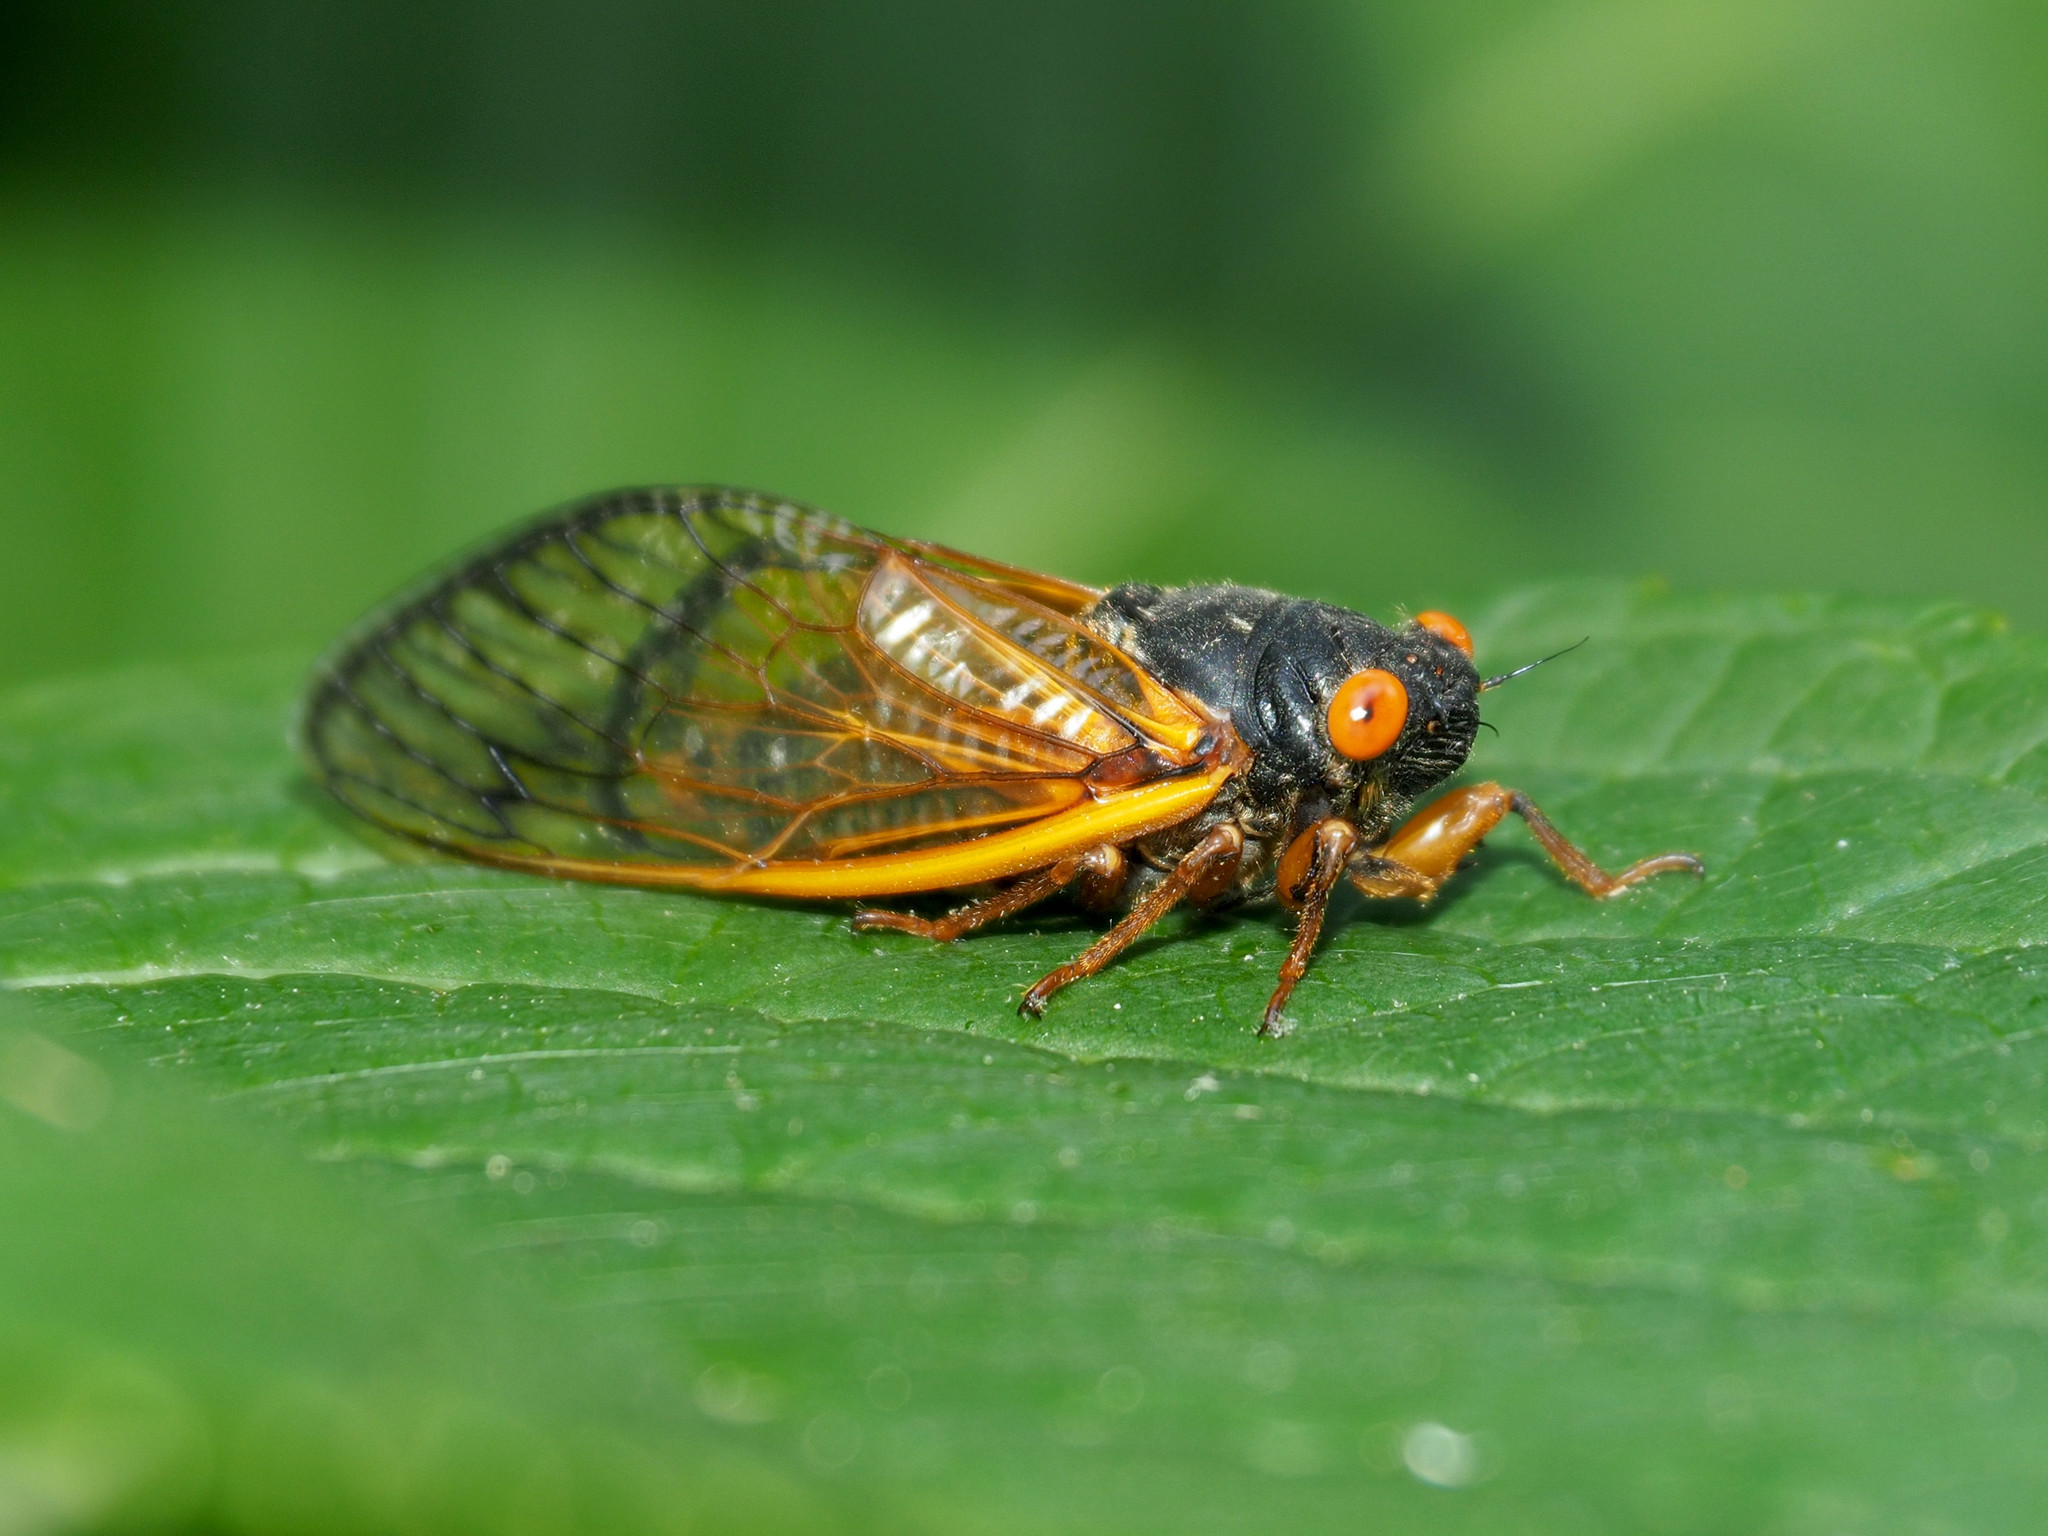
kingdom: Animalia
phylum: Arthropoda
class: Insecta
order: Hemiptera
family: Cicadidae
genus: Magicicada
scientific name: Magicicada septendecula
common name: Decula periodical cicada
